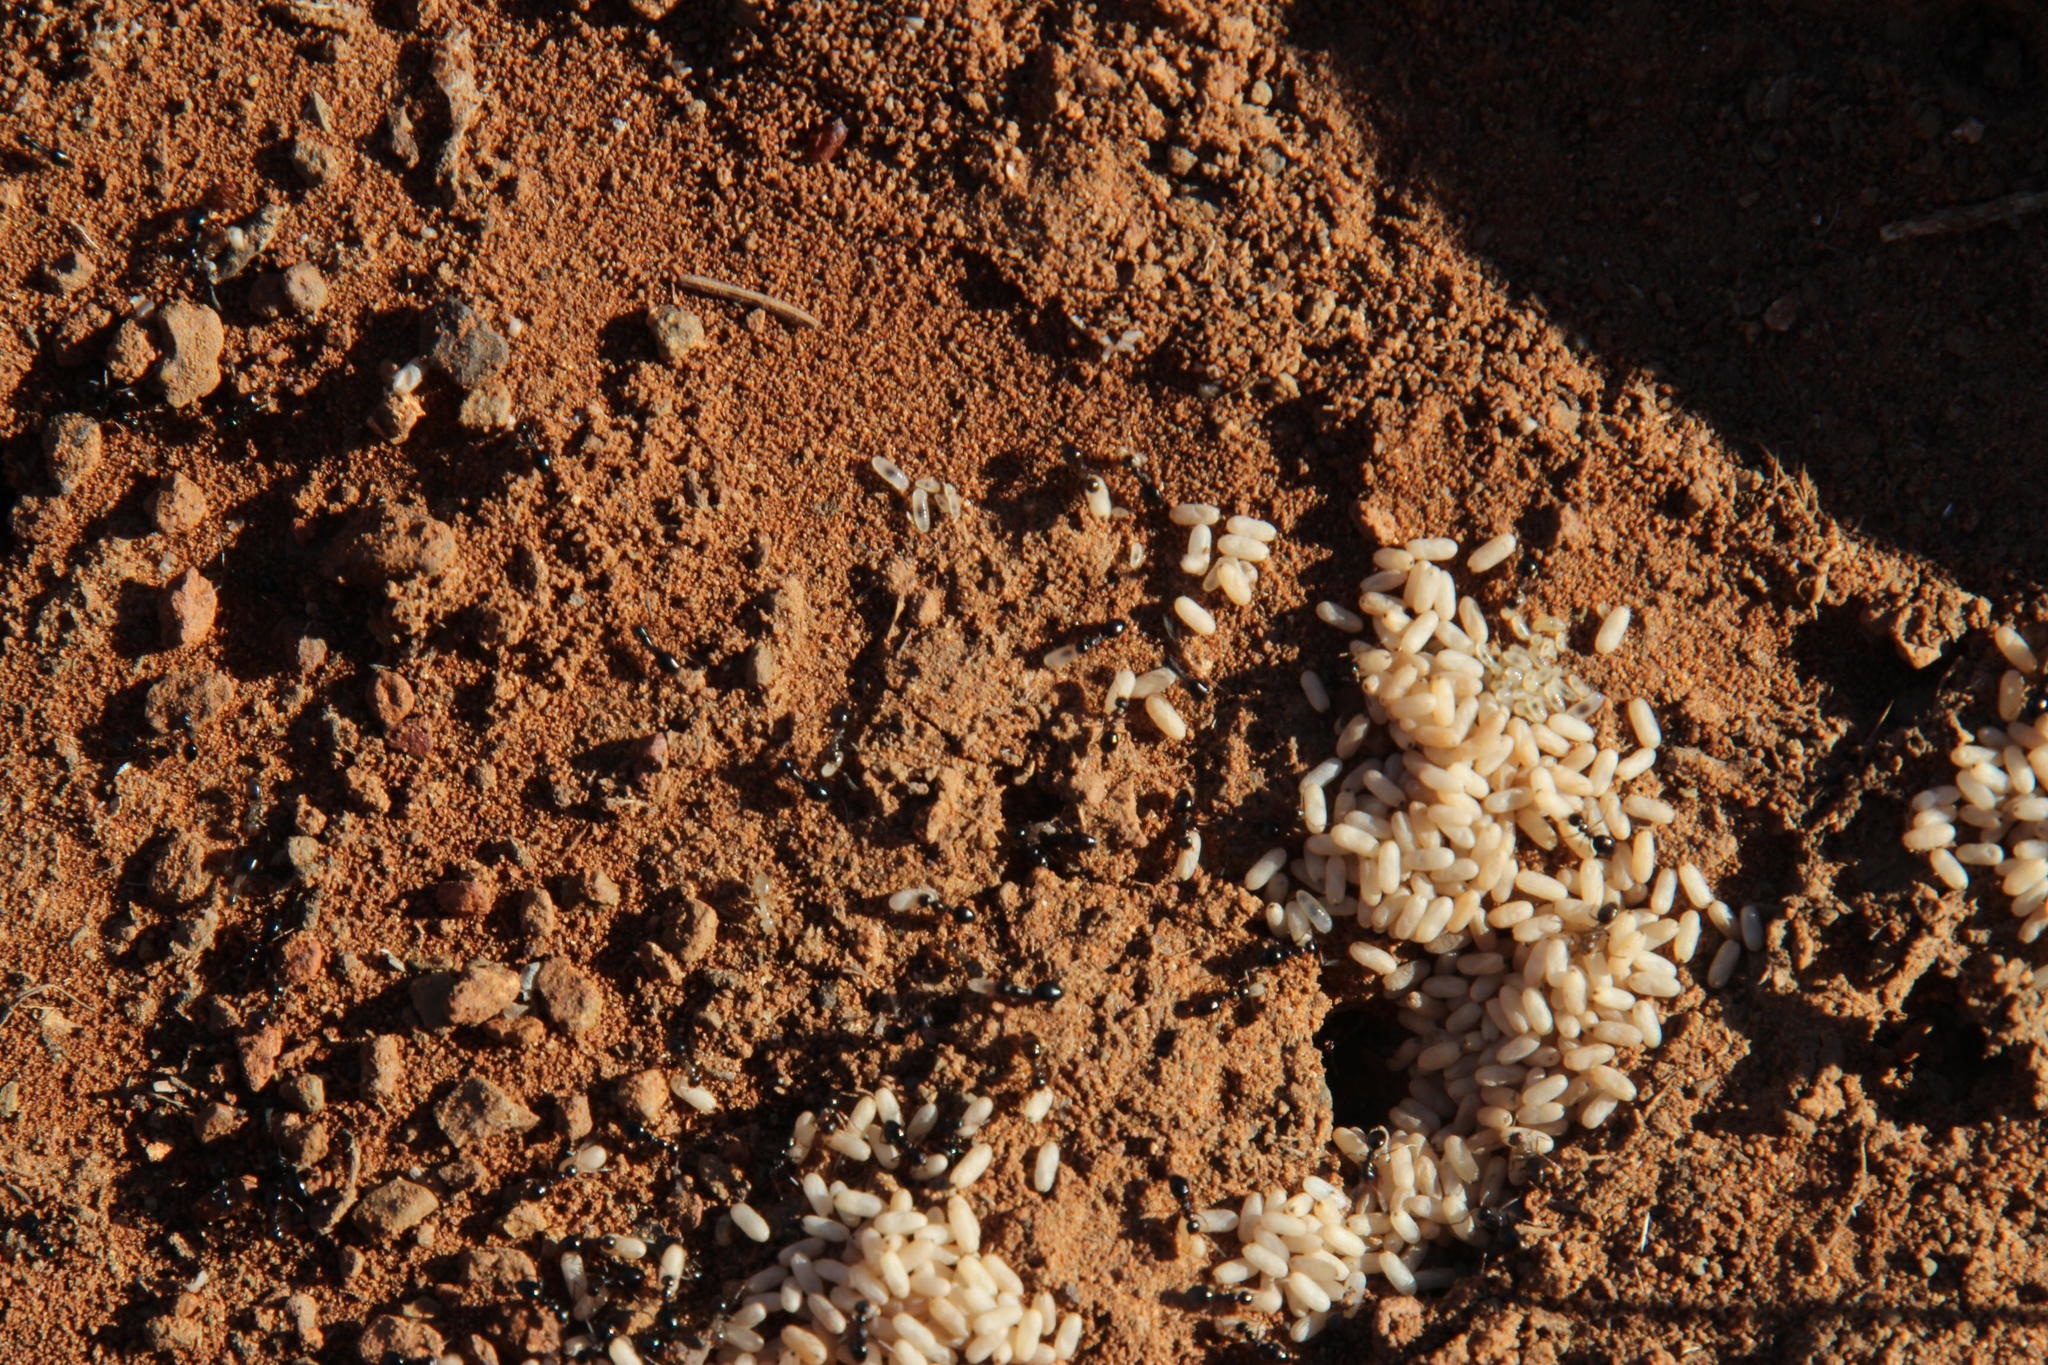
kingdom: Animalia
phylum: Arthropoda
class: Insecta
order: Hymenoptera
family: Formicidae
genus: Lepisiota
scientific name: Lepisiota capensis
